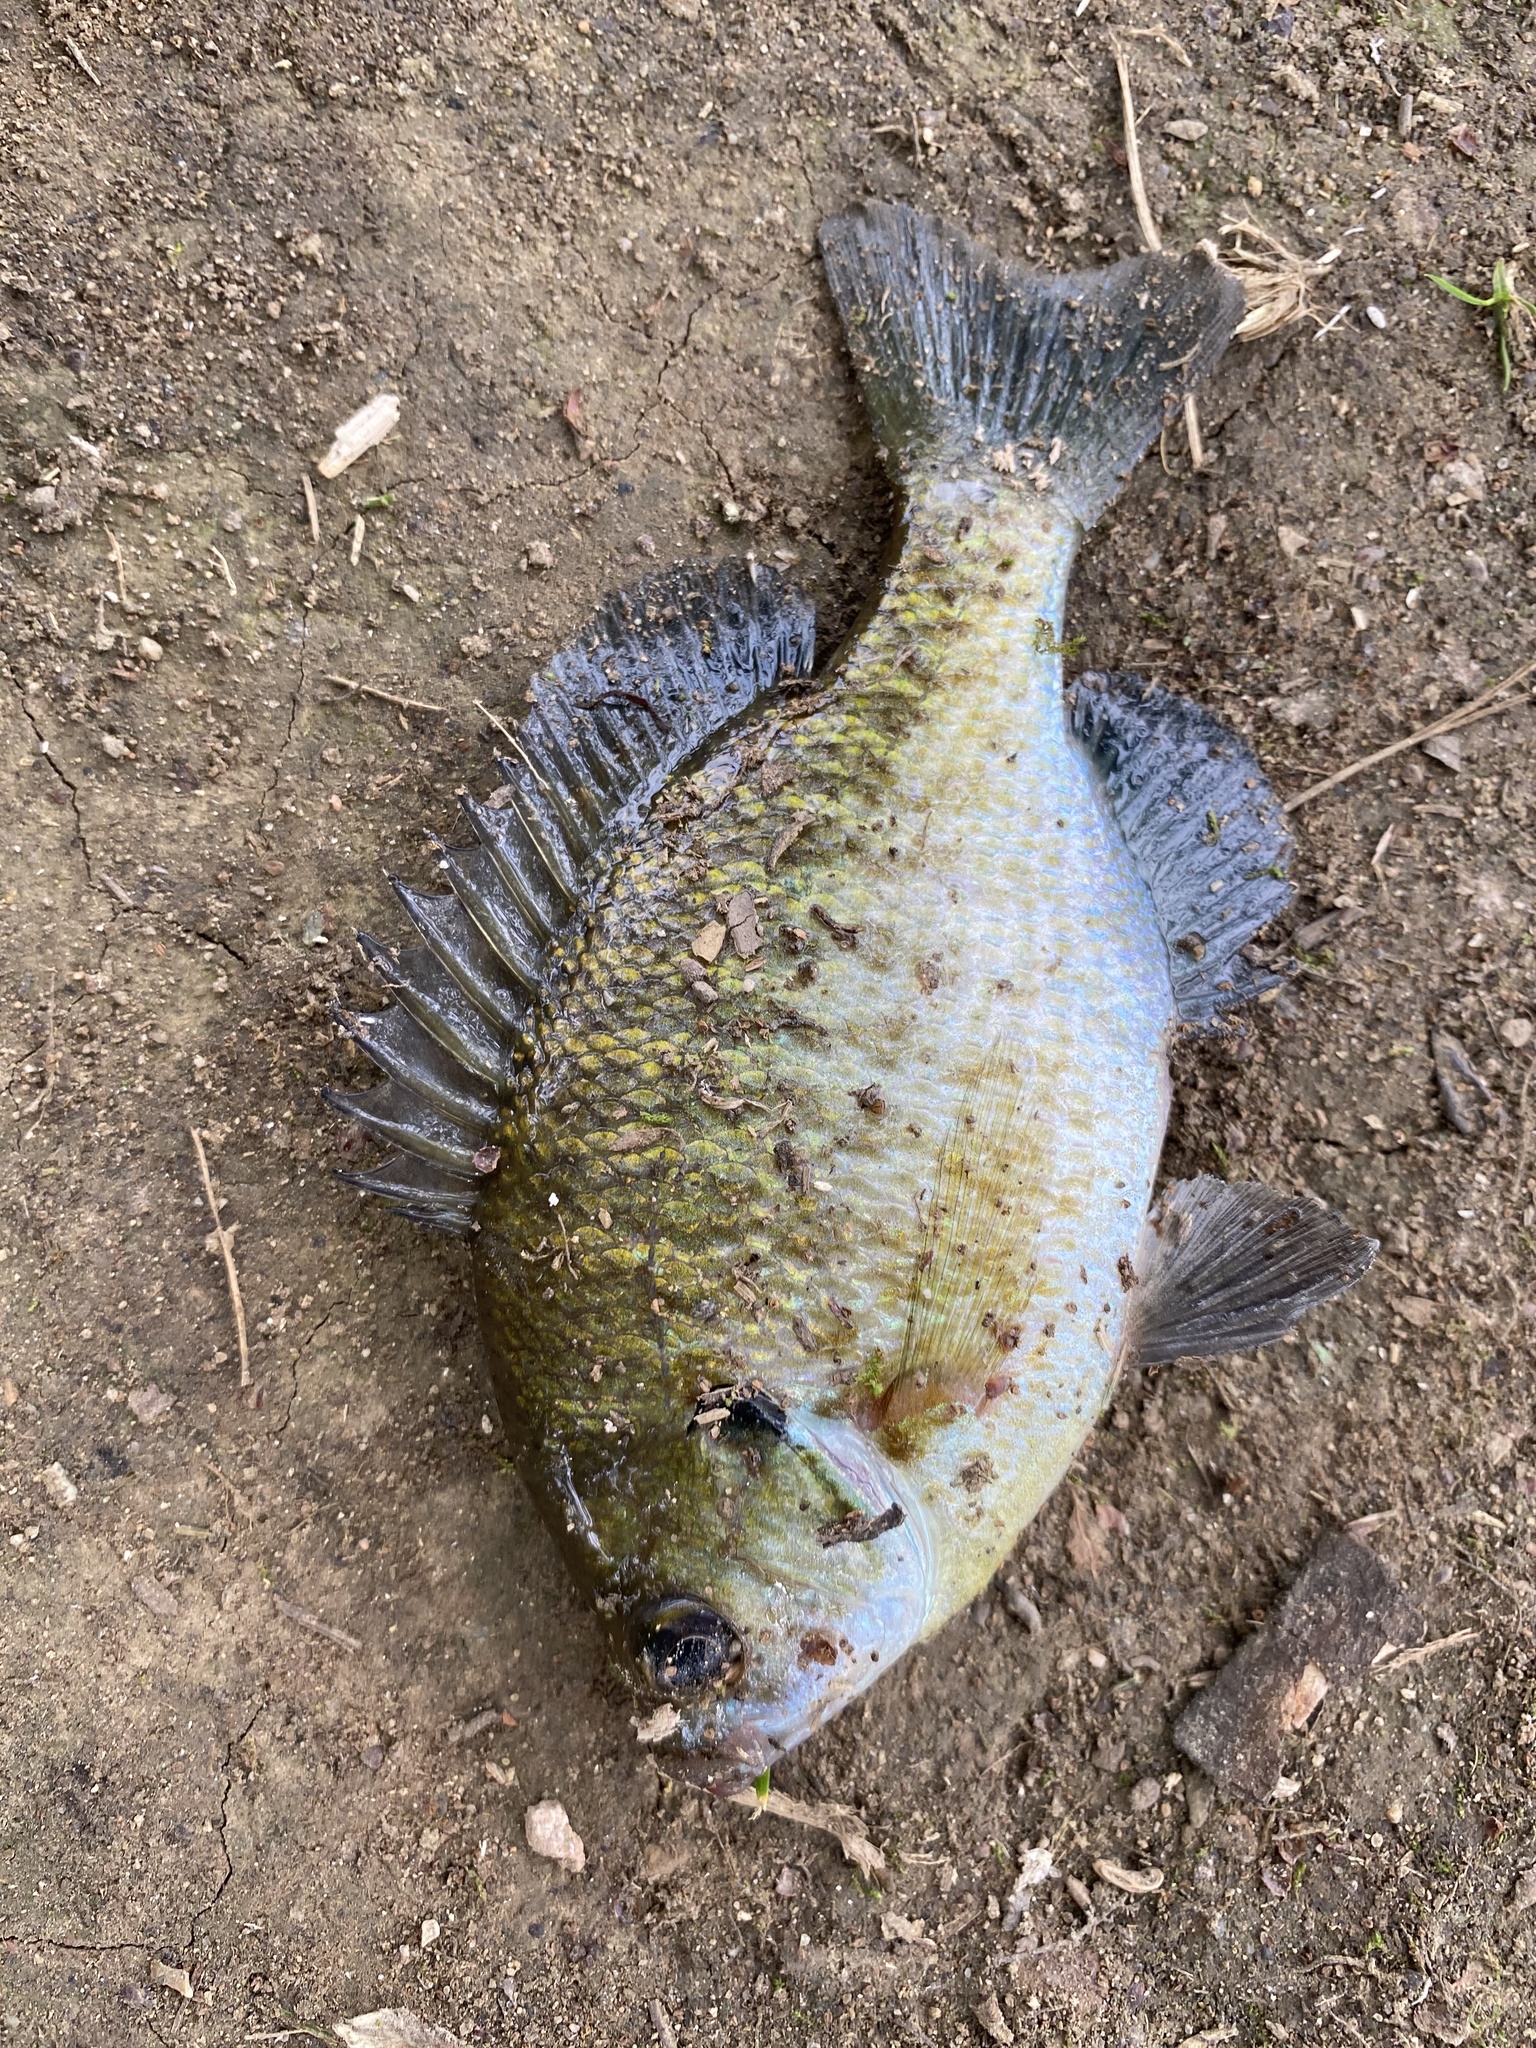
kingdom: Animalia
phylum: Chordata
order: Perciformes
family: Centrarchidae
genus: Lepomis
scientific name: Lepomis macrochirus
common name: Bluegill
